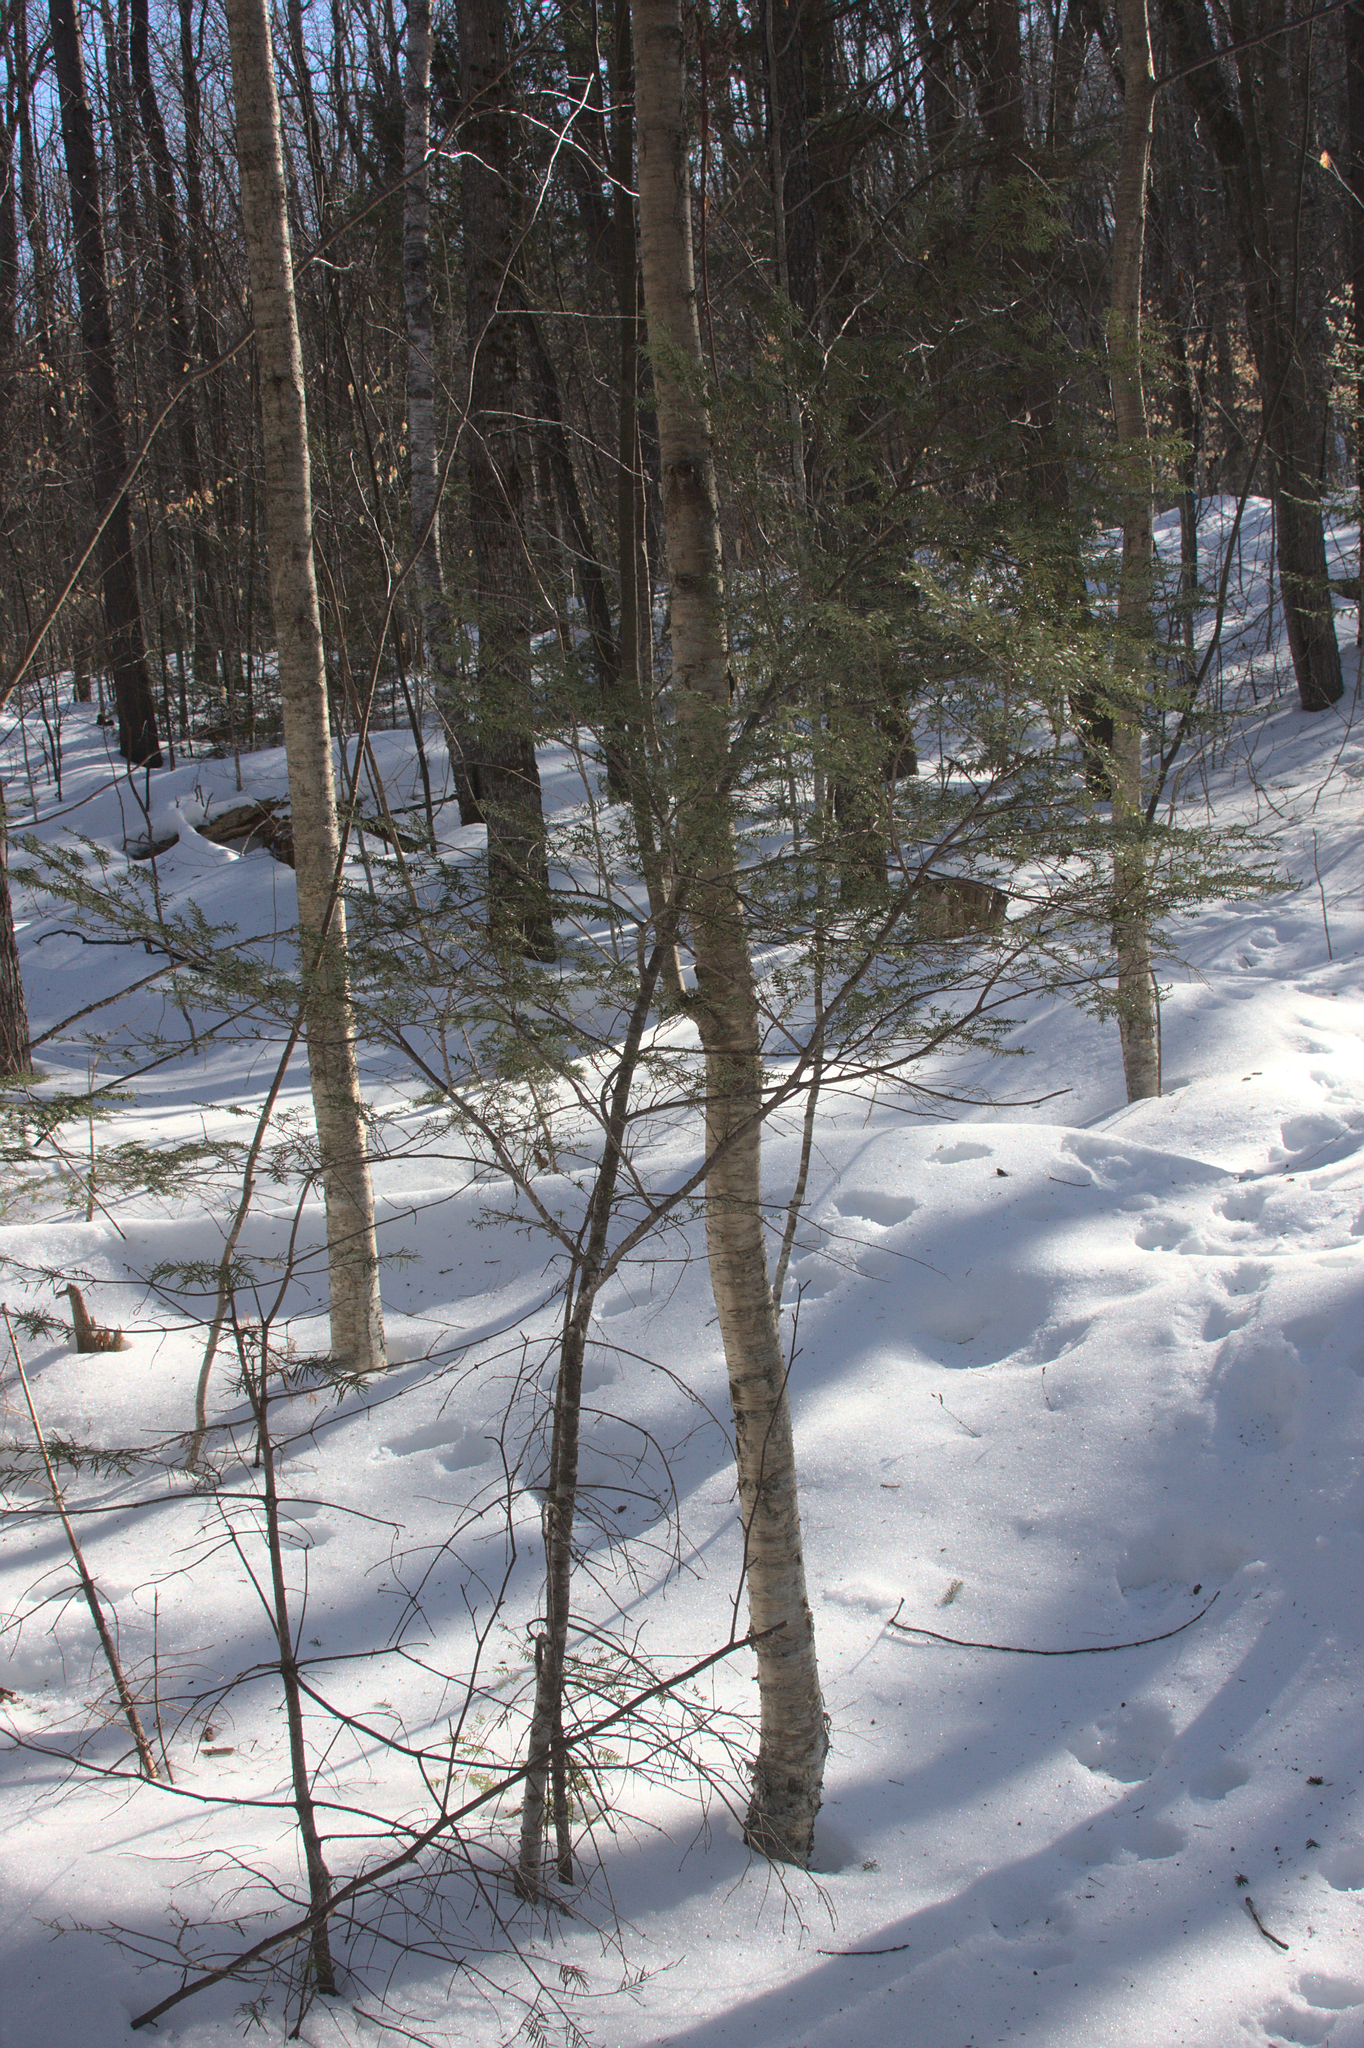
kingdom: Plantae
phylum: Tracheophyta
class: Pinopsida
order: Pinales
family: Pinaceae
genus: Tsuga
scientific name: Tsuga canadensis
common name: Eastern hemlock
